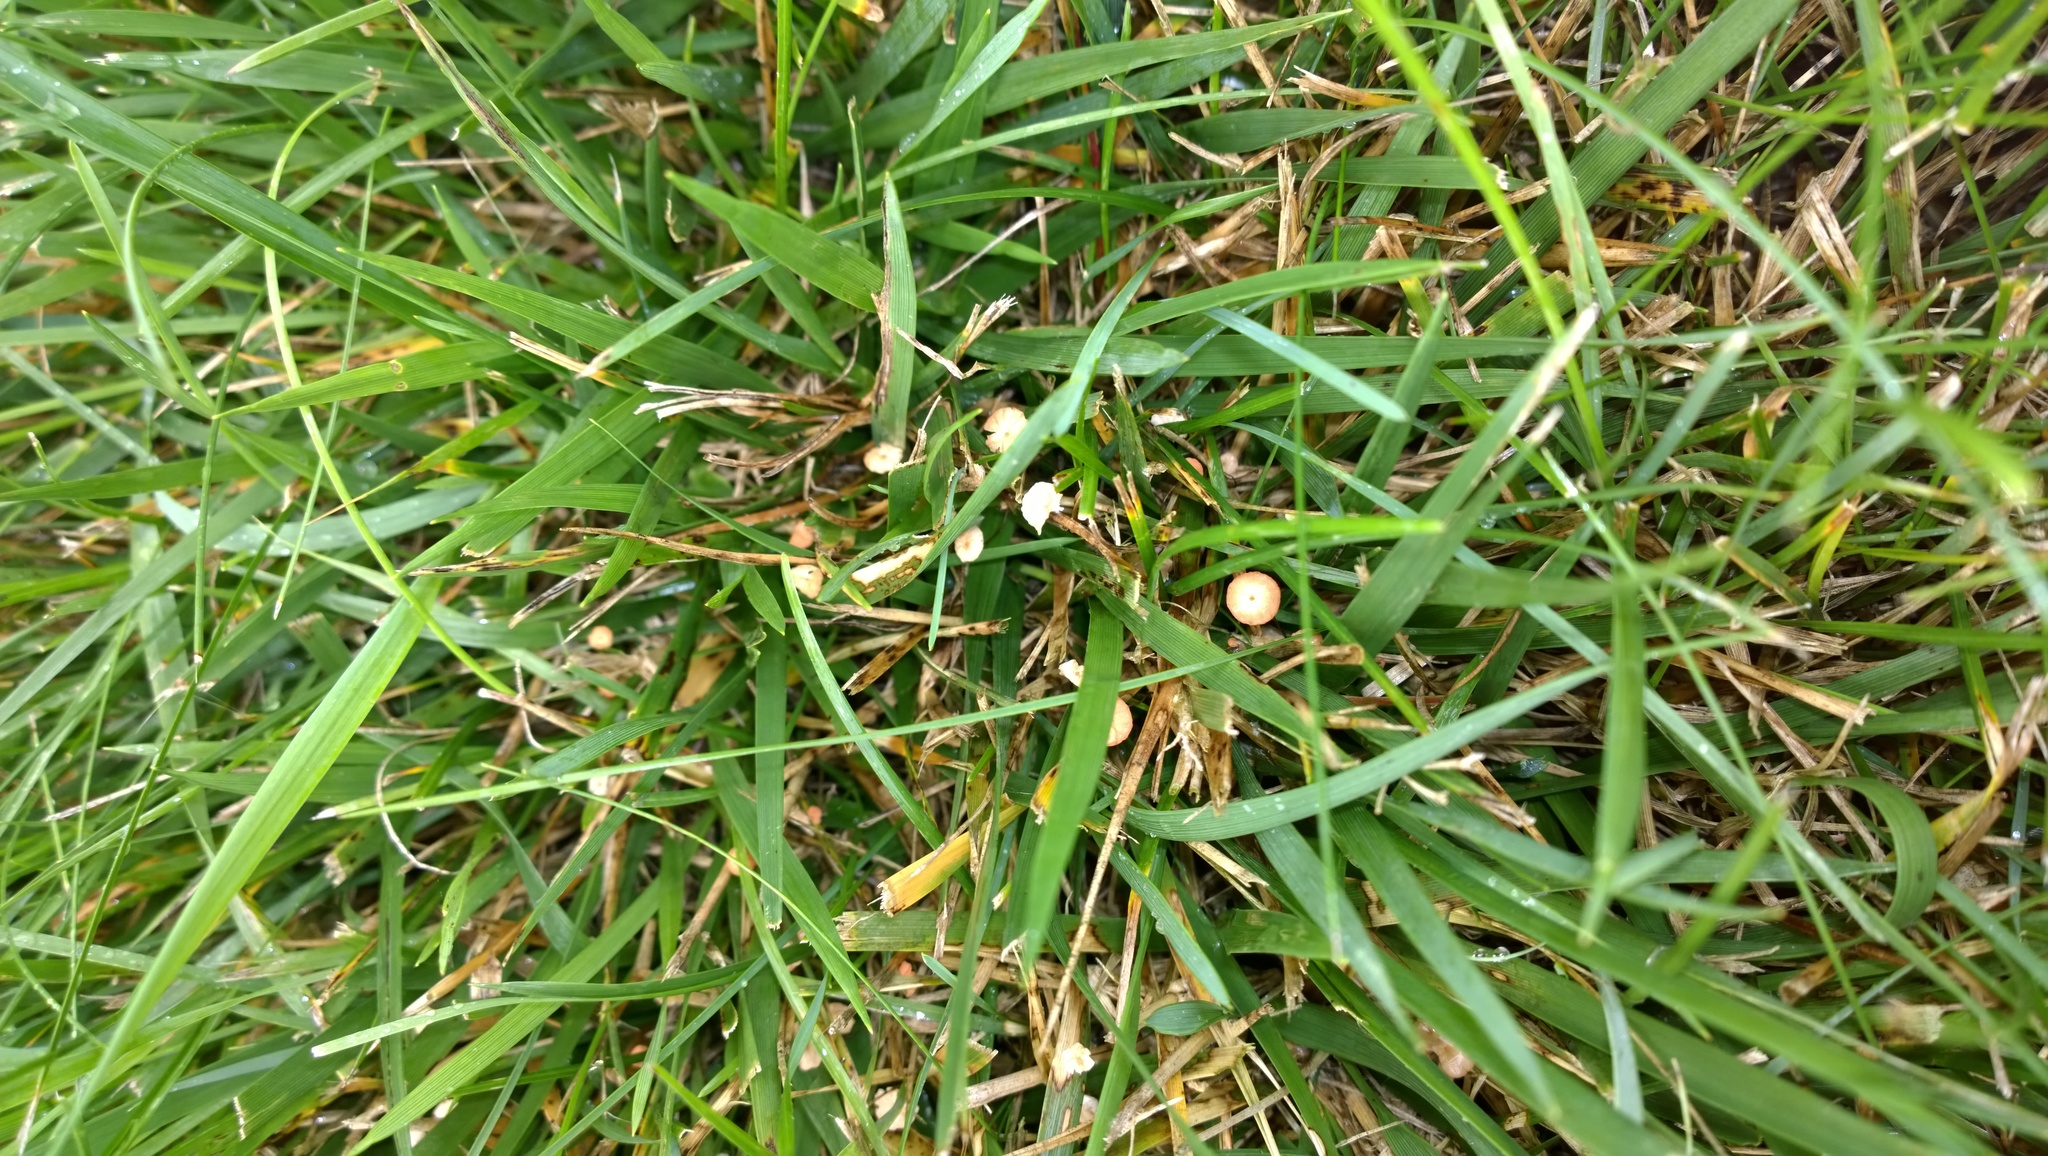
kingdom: Fungi
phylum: Basidiomycota
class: Agaricomycetes
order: Agaricales
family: Marasmiaceae
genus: Marasmius
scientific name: Marasmius graminum
